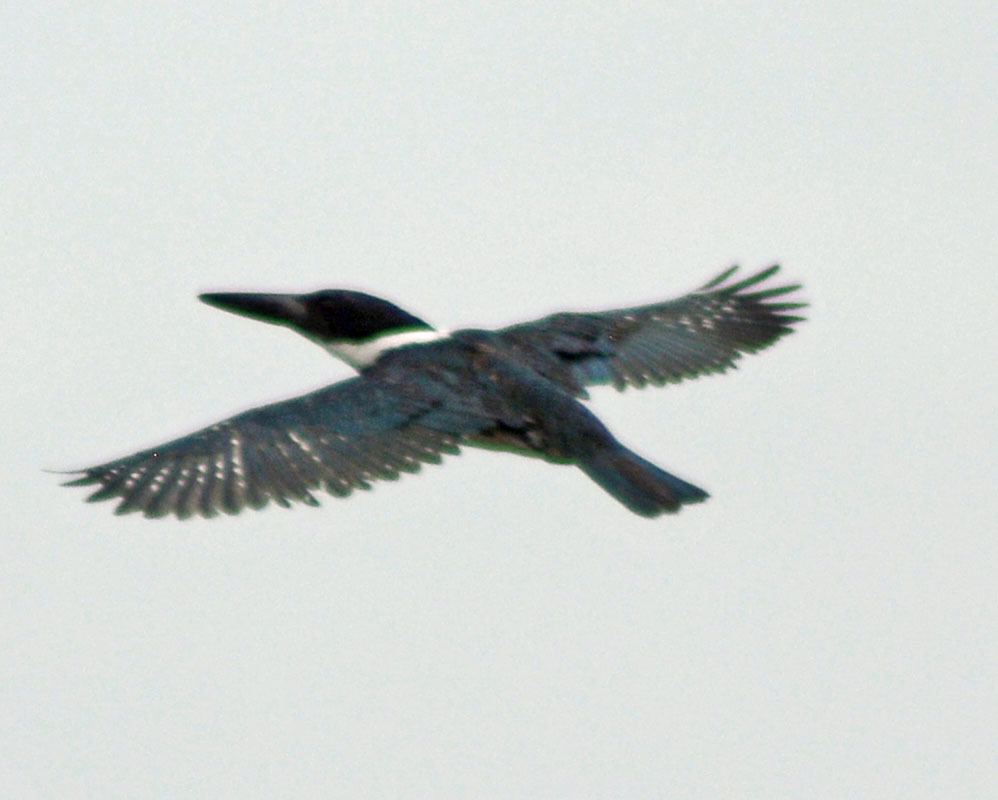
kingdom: Animalia
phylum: Chordata
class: Aves
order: Coraciiformes
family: Alcedinidae
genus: Megaceryle
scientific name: Megaceryle alcyon
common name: Belted kingfisher
